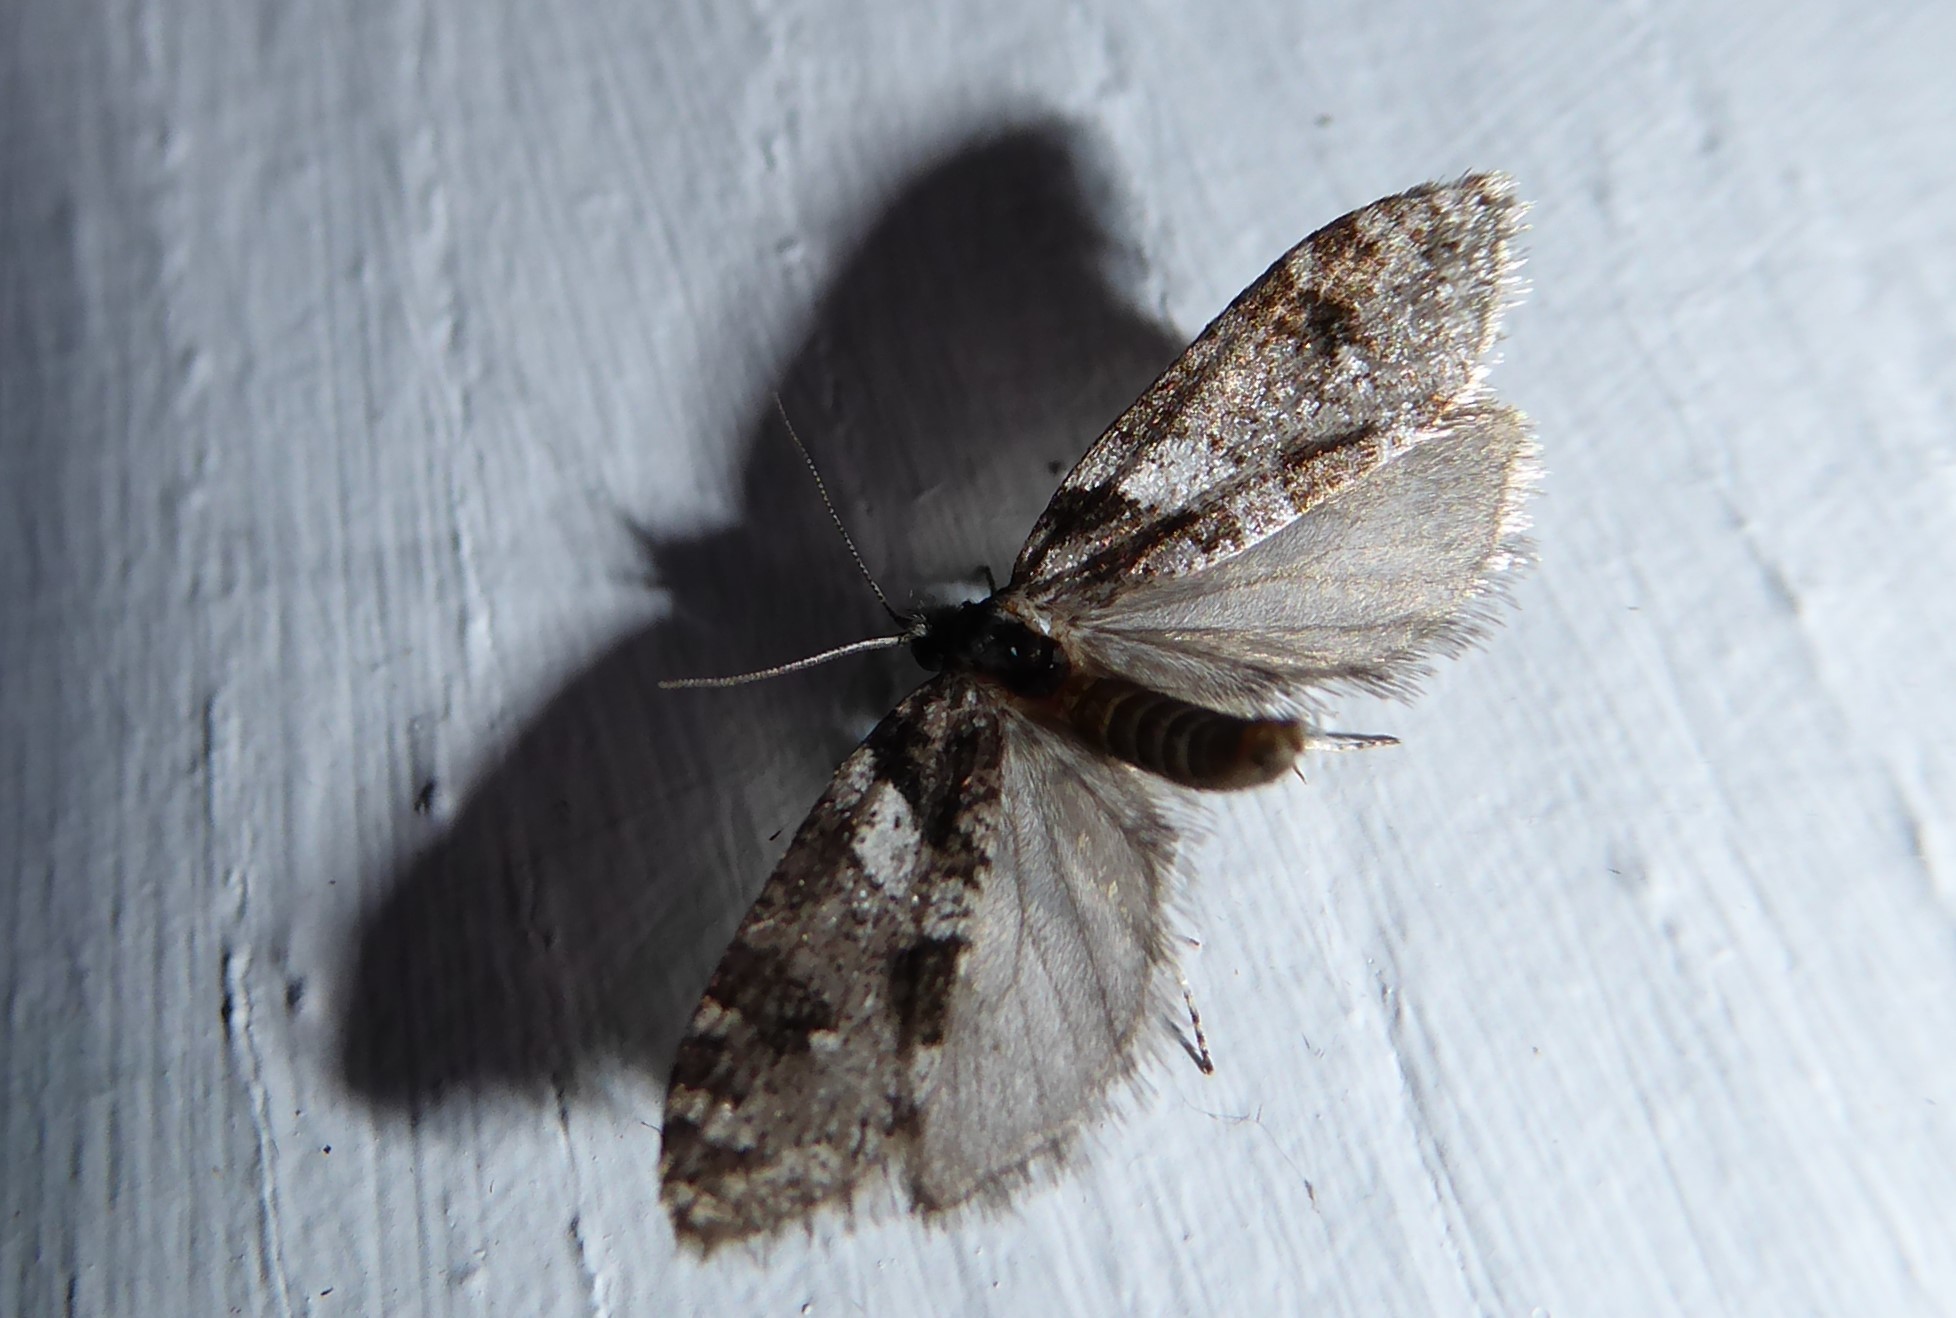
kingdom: Animalia
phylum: Arthropoda
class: Insecta
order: Lepidoptera
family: Psychidae
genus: Lepidoscia
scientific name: Lepidoscia heliochares
